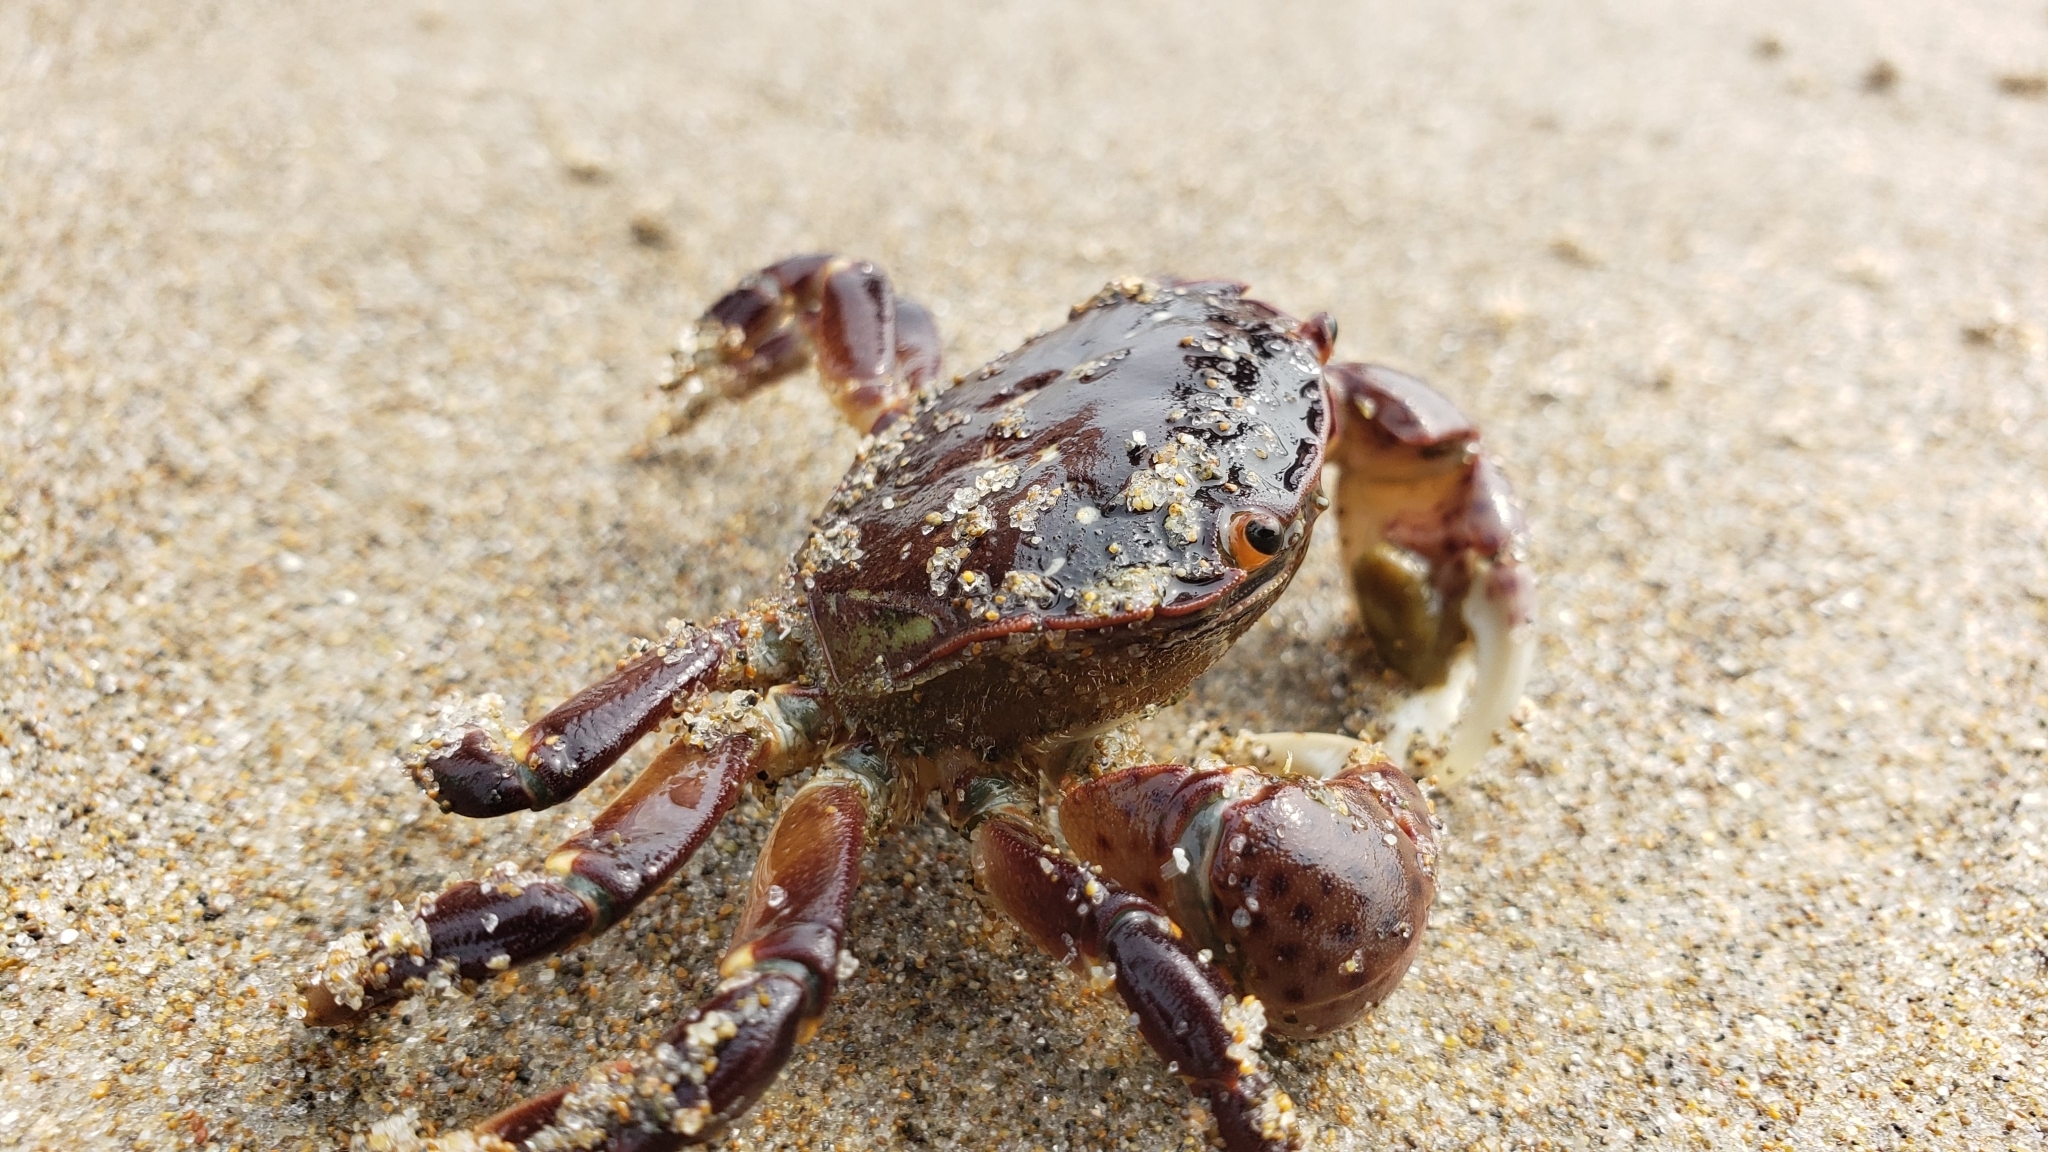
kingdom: Animalia
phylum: Arthropoda
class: Malacostraca
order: Decapoda
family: Varunidae
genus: Hemigrapsus
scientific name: Hemigrapsus nudus
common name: Purple shore crab
